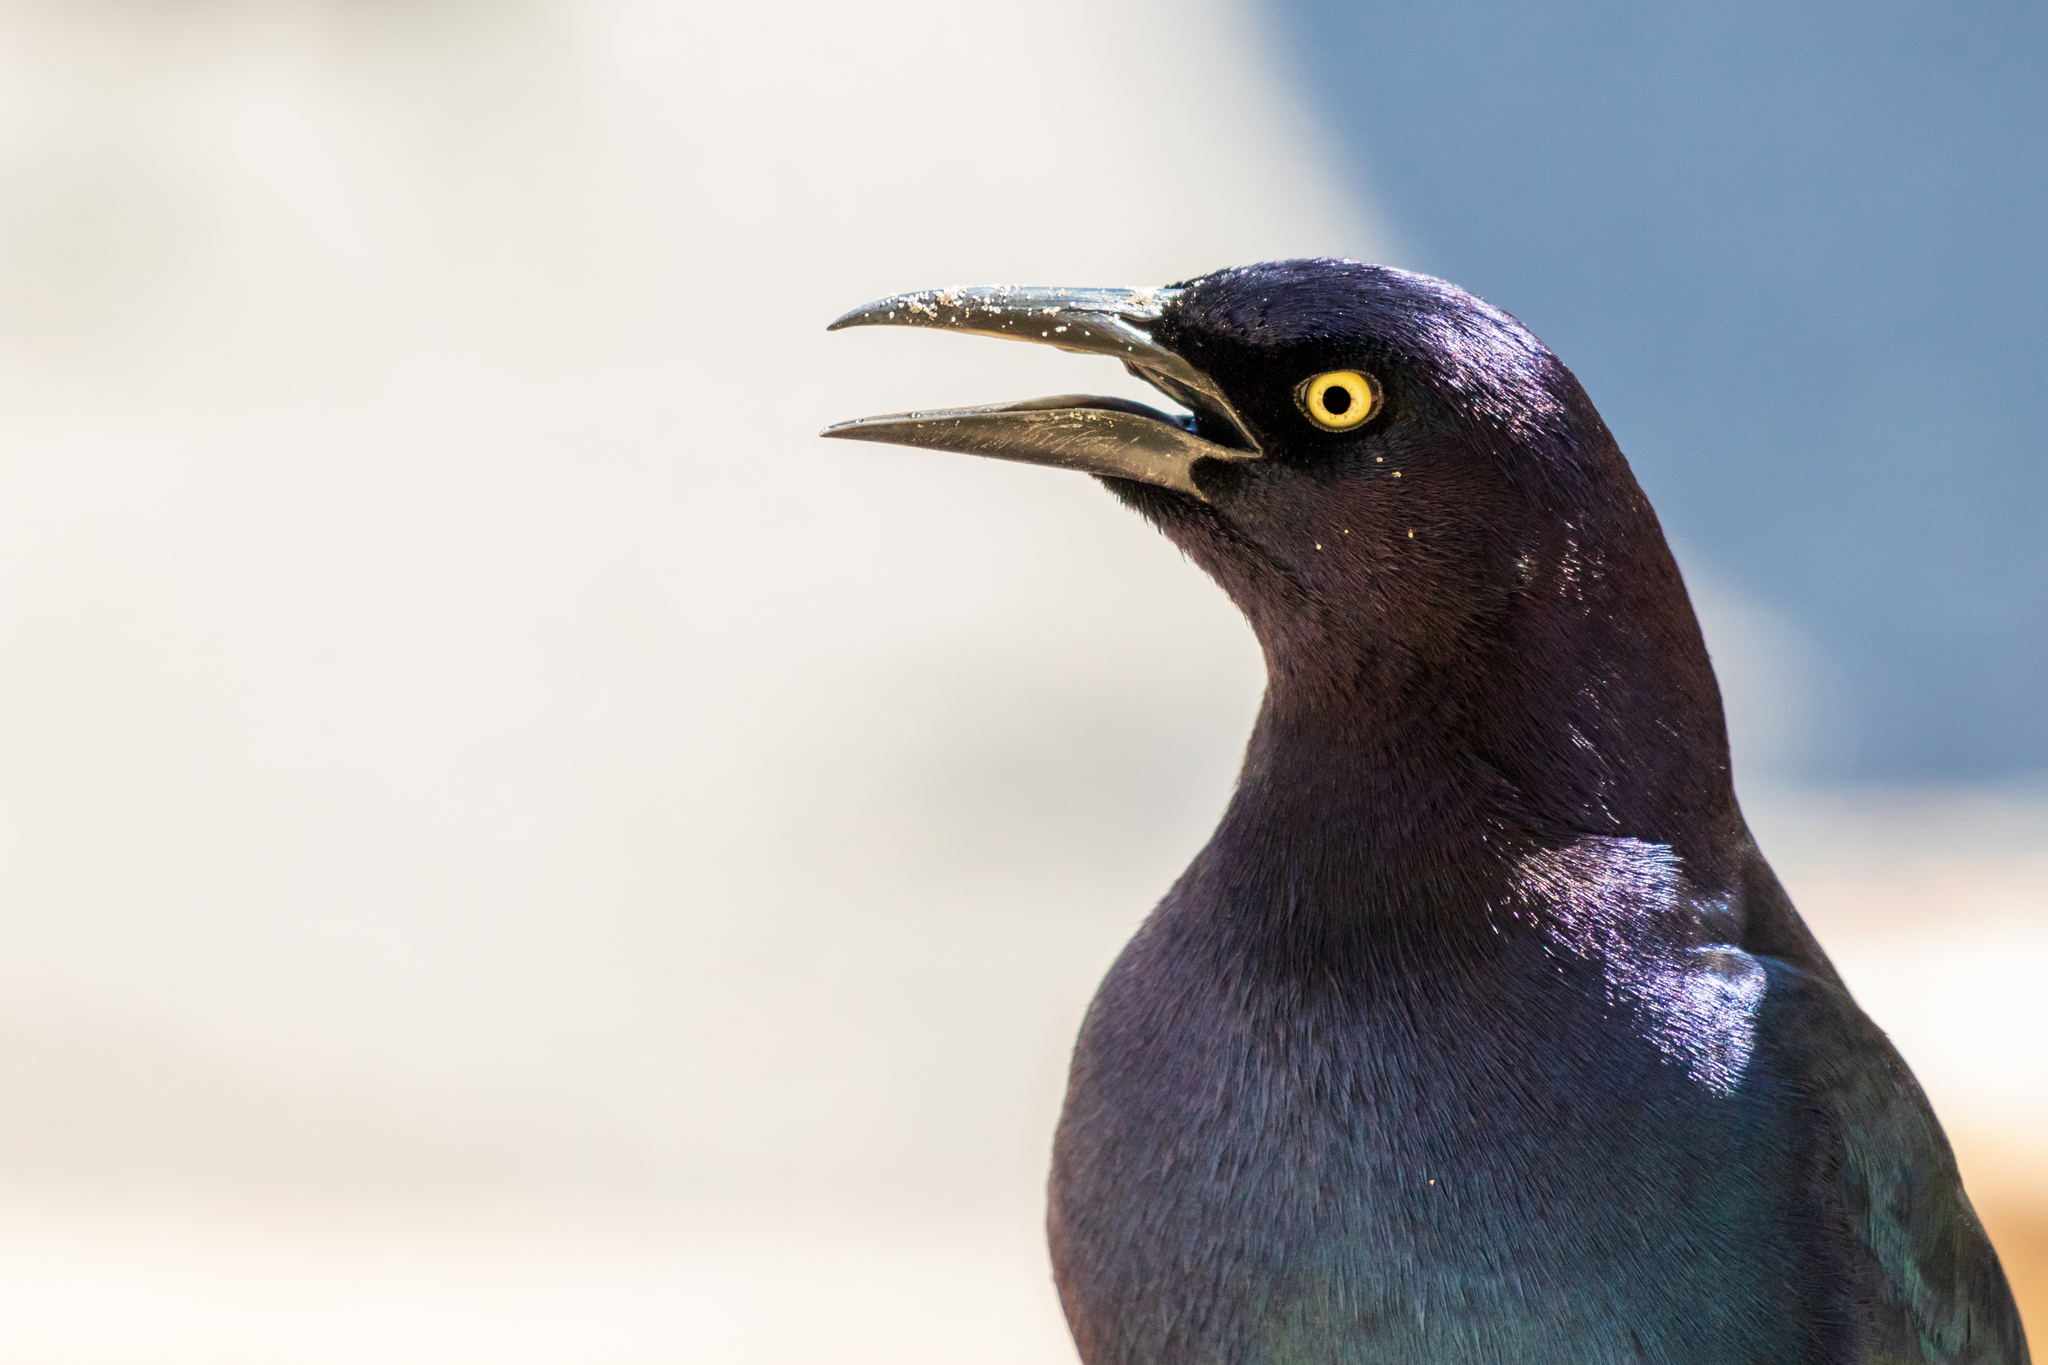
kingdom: Animalia
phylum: Chordata
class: Aves
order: Passeriformes
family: Icteridae
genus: Quiscalus
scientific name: Quiscalus major
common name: Boat-tailed grackle
